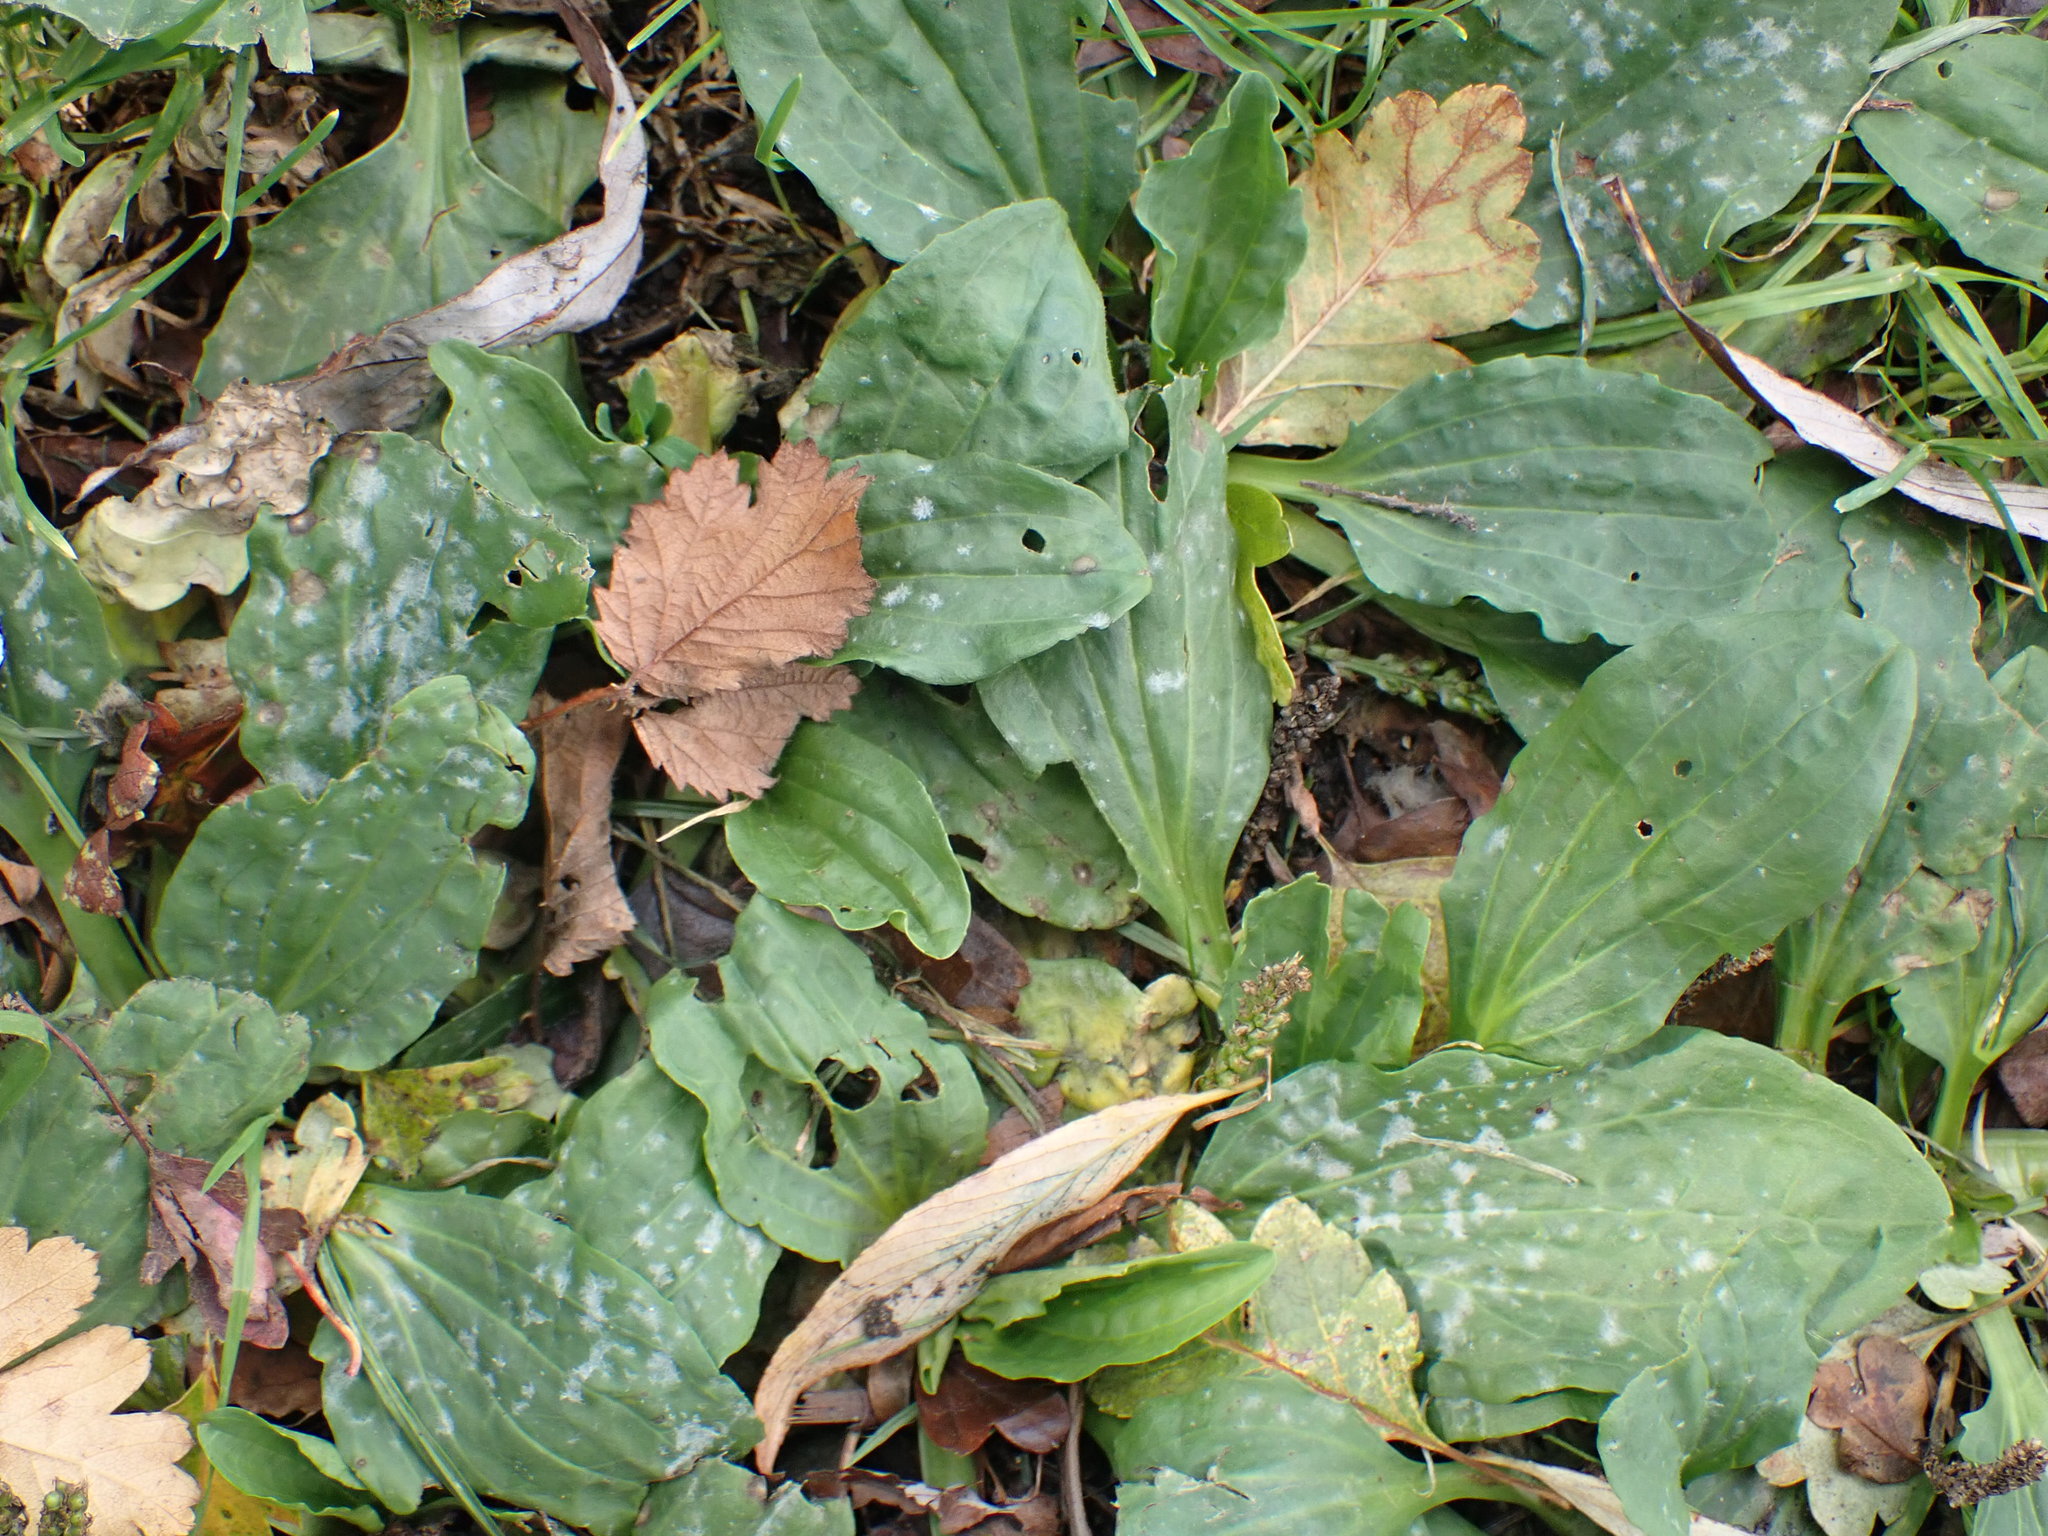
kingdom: Plantae
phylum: Tracheophyta
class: Magnoliopsida
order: Lamiales
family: Plantaginaceae
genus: Plantago
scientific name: Plantago major
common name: Common plantain
